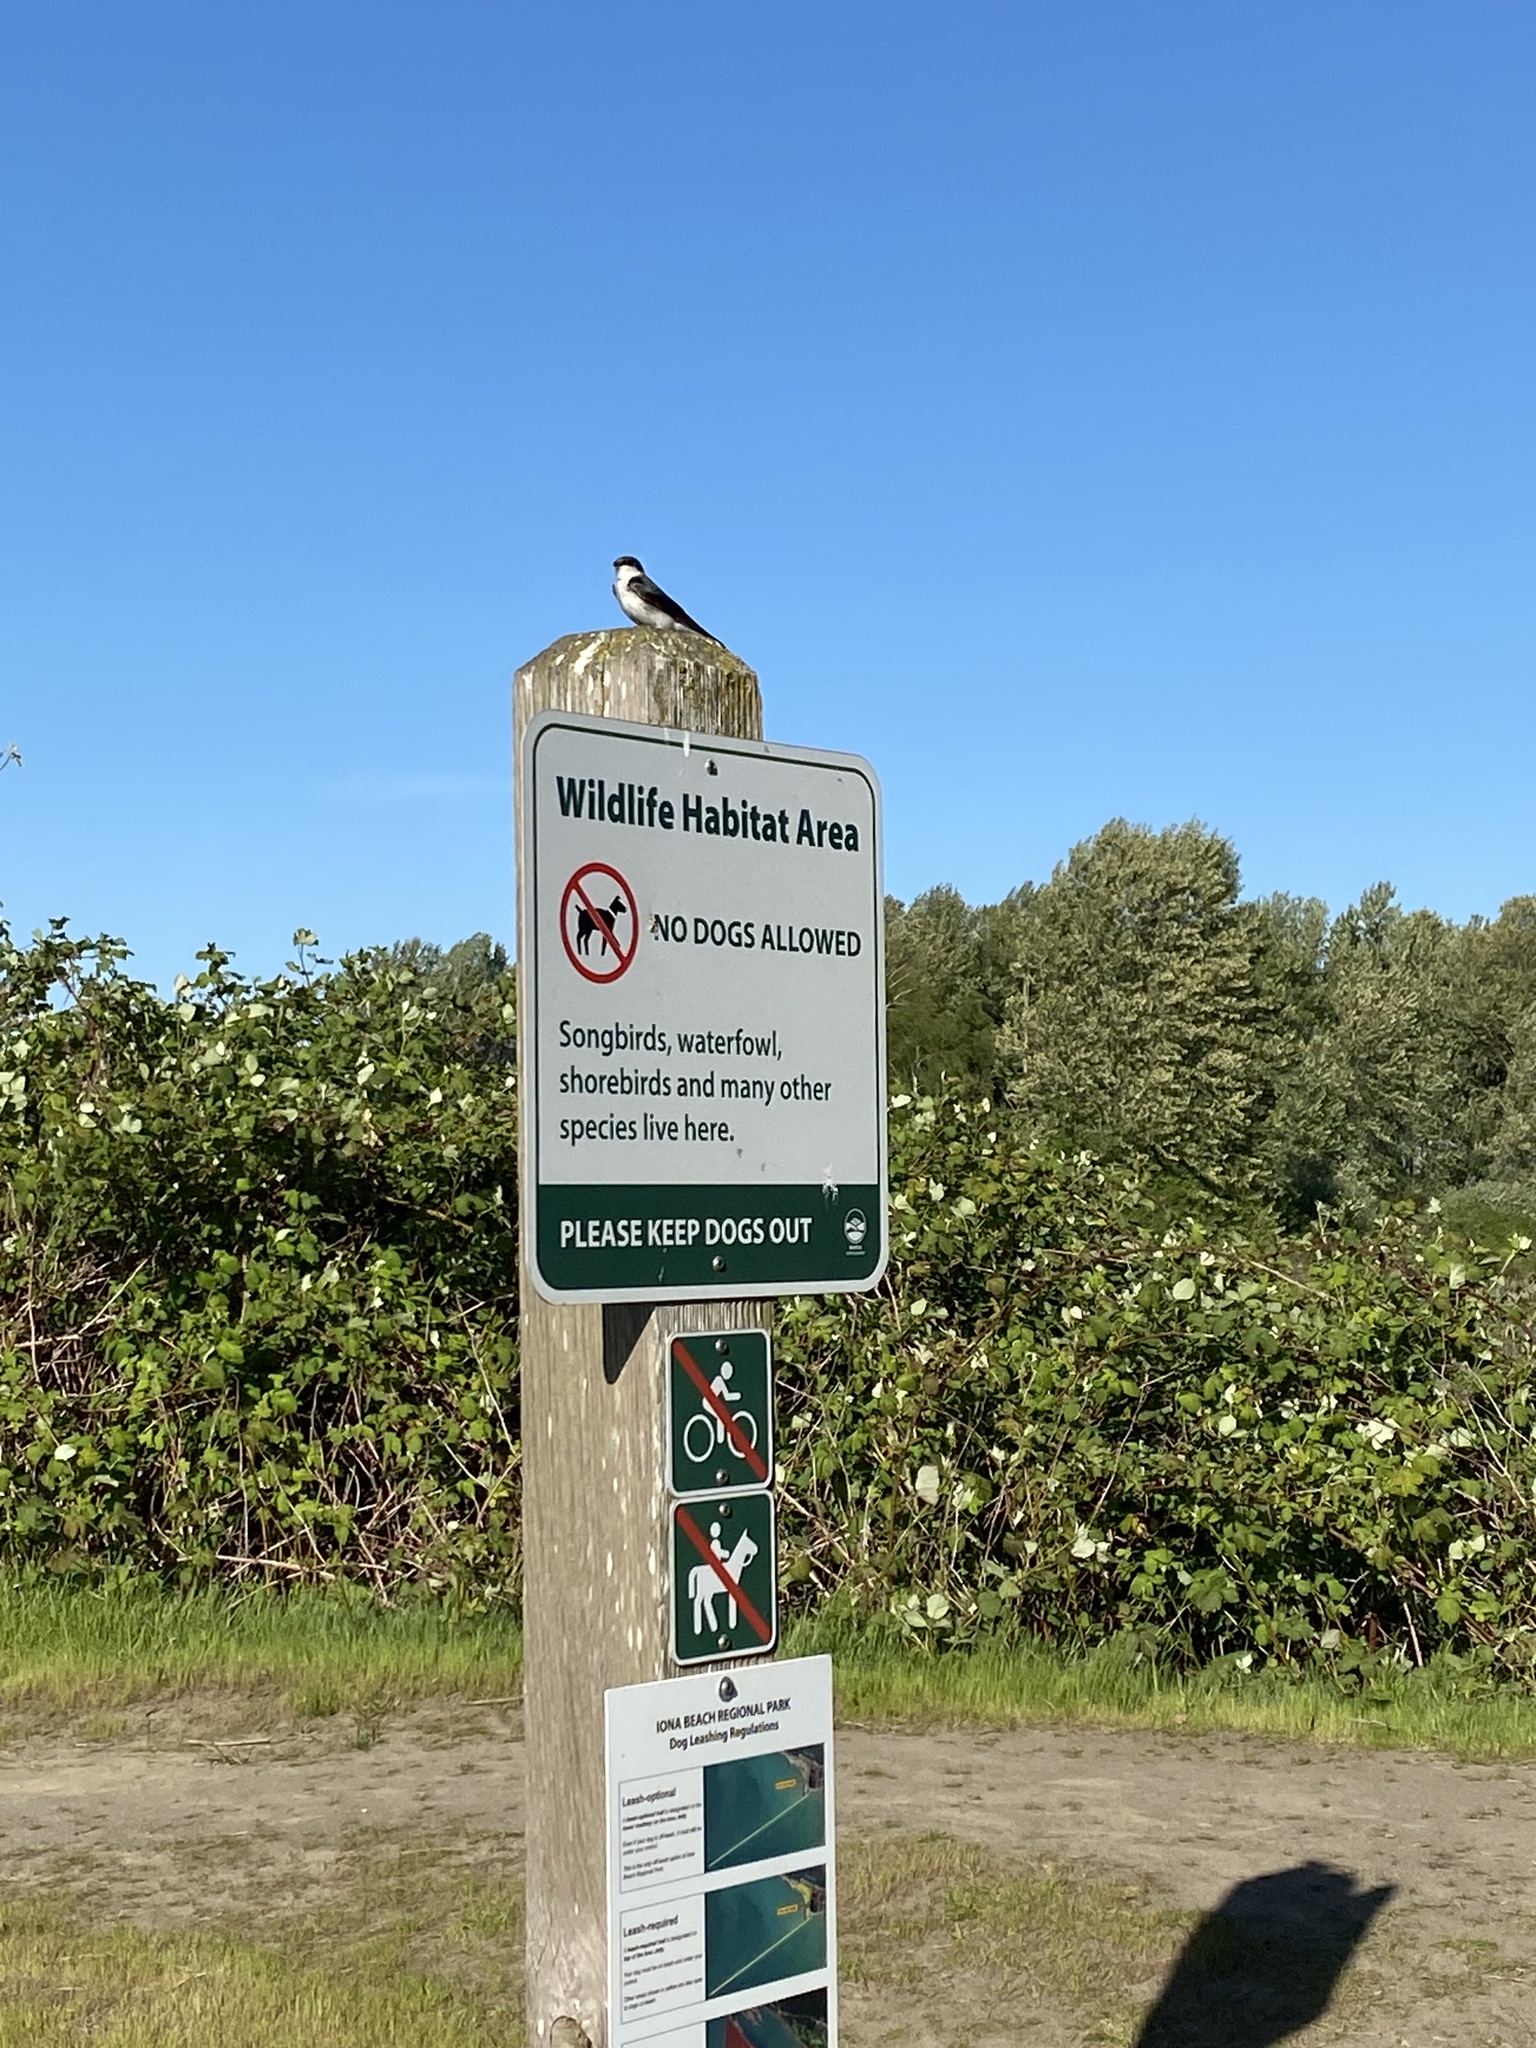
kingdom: Animalia
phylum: Chordata
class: Aves
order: Passeriformes
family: Hirundinidae
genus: Tachycineta
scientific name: Tachycineta bicolor
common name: Tree swallow
